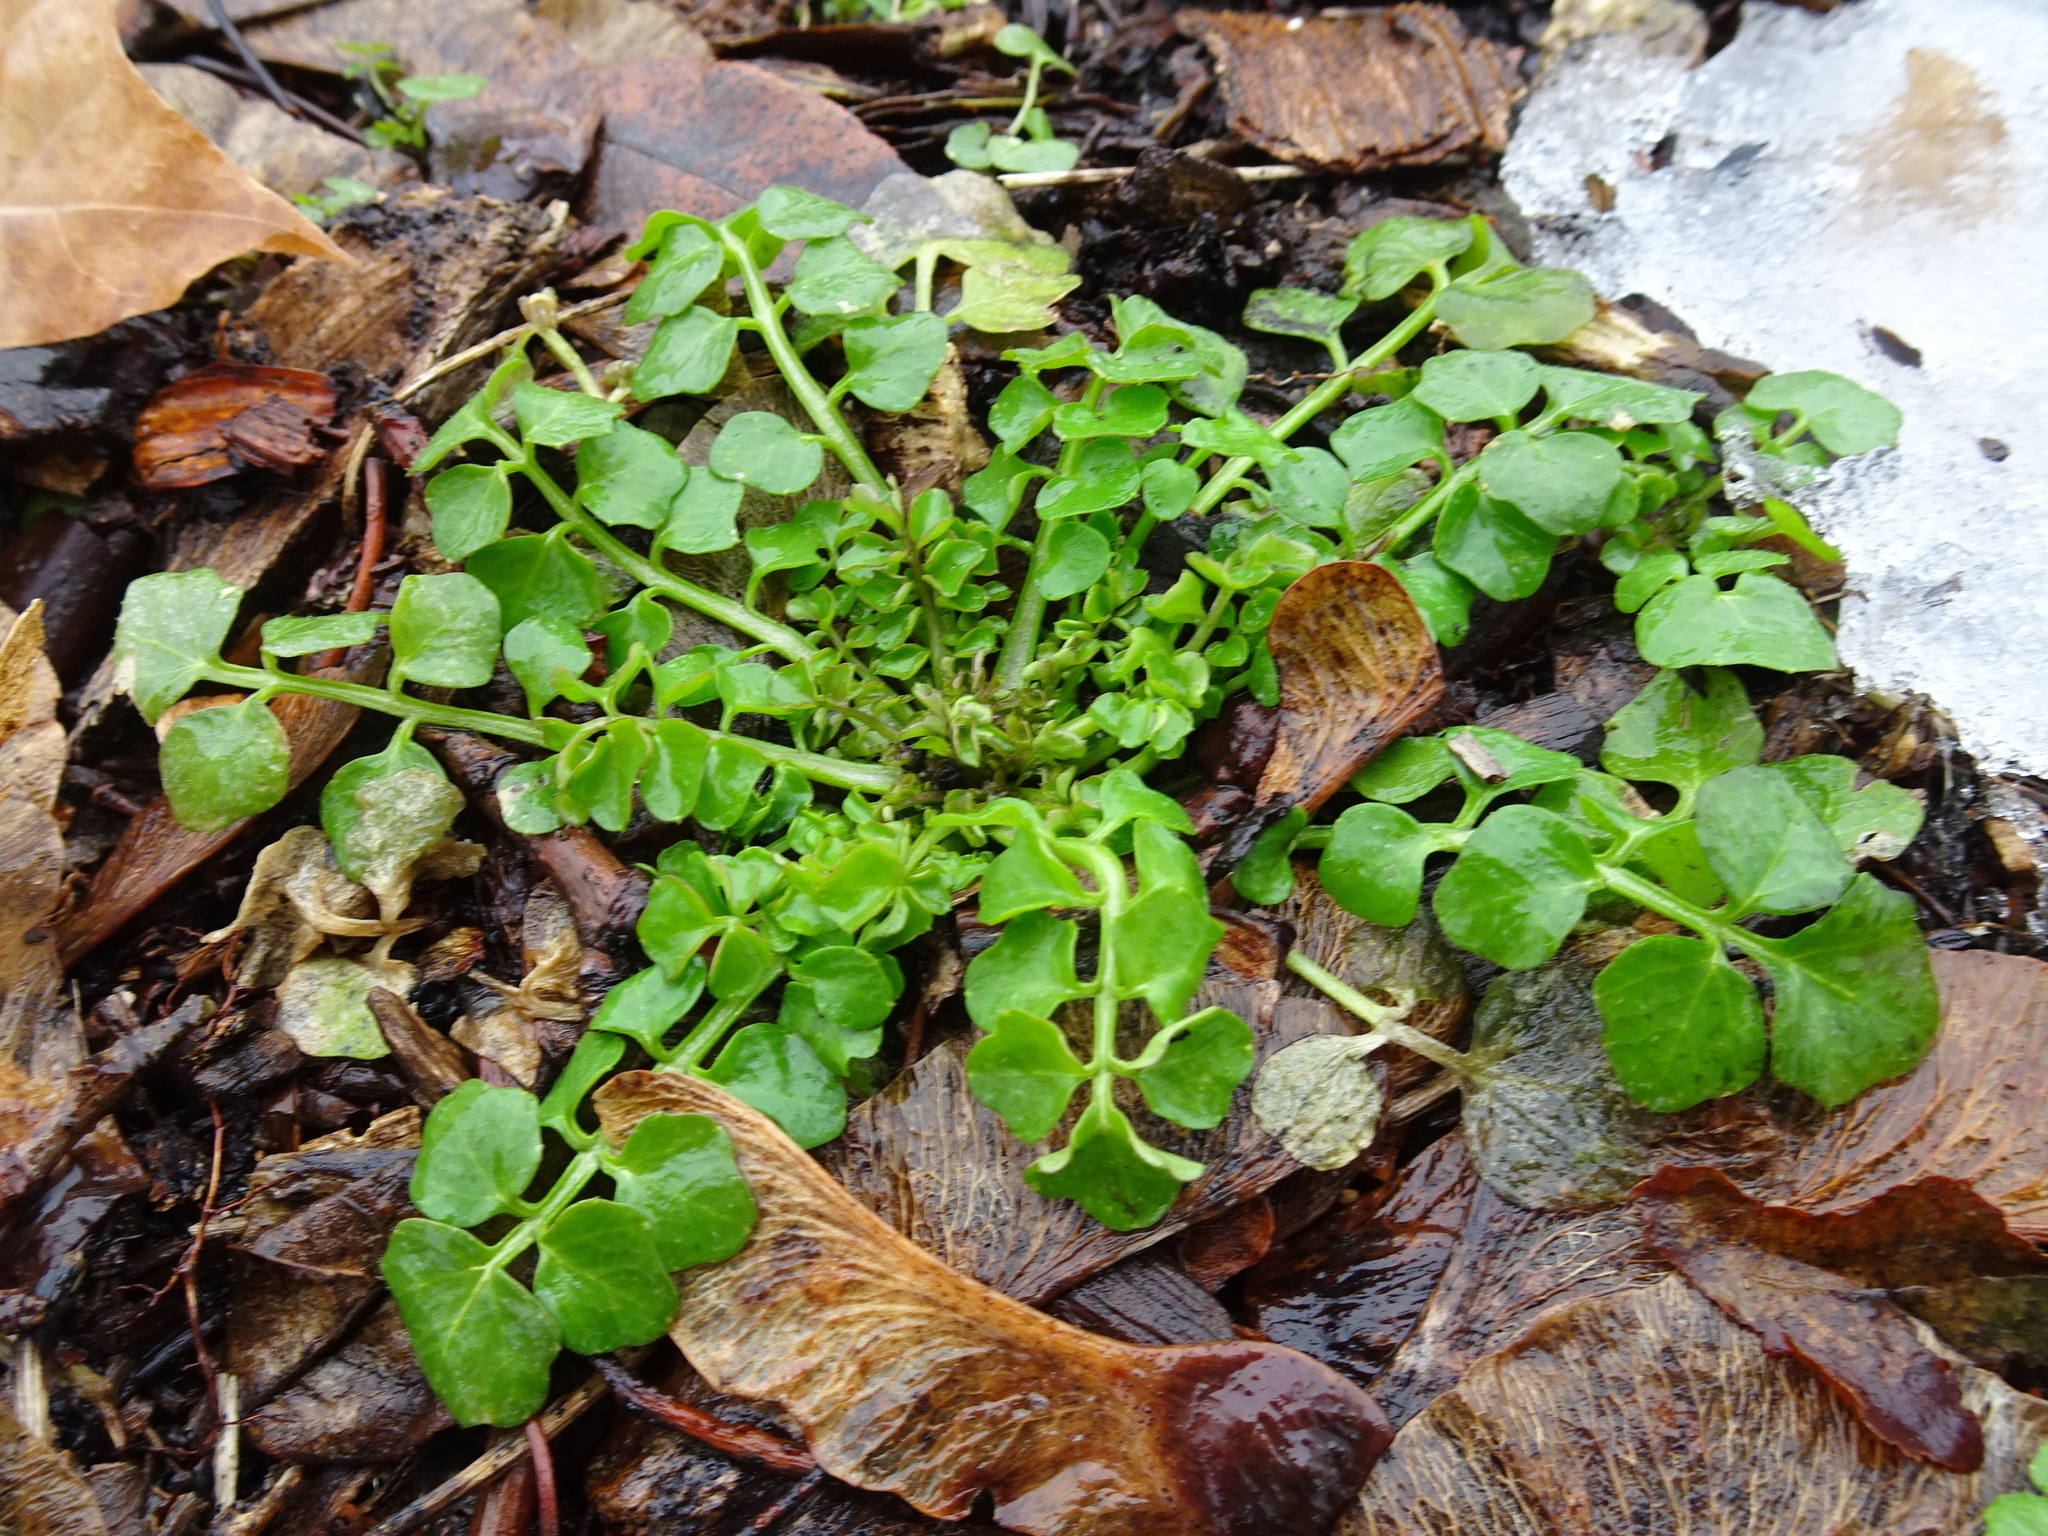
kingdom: Plantae
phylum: Tracheophyta
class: Magnoliopsida
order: Brassicales
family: Brassicaceae
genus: Cardamine
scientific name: Cardamine hirsuta
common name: Hairy bittercress
